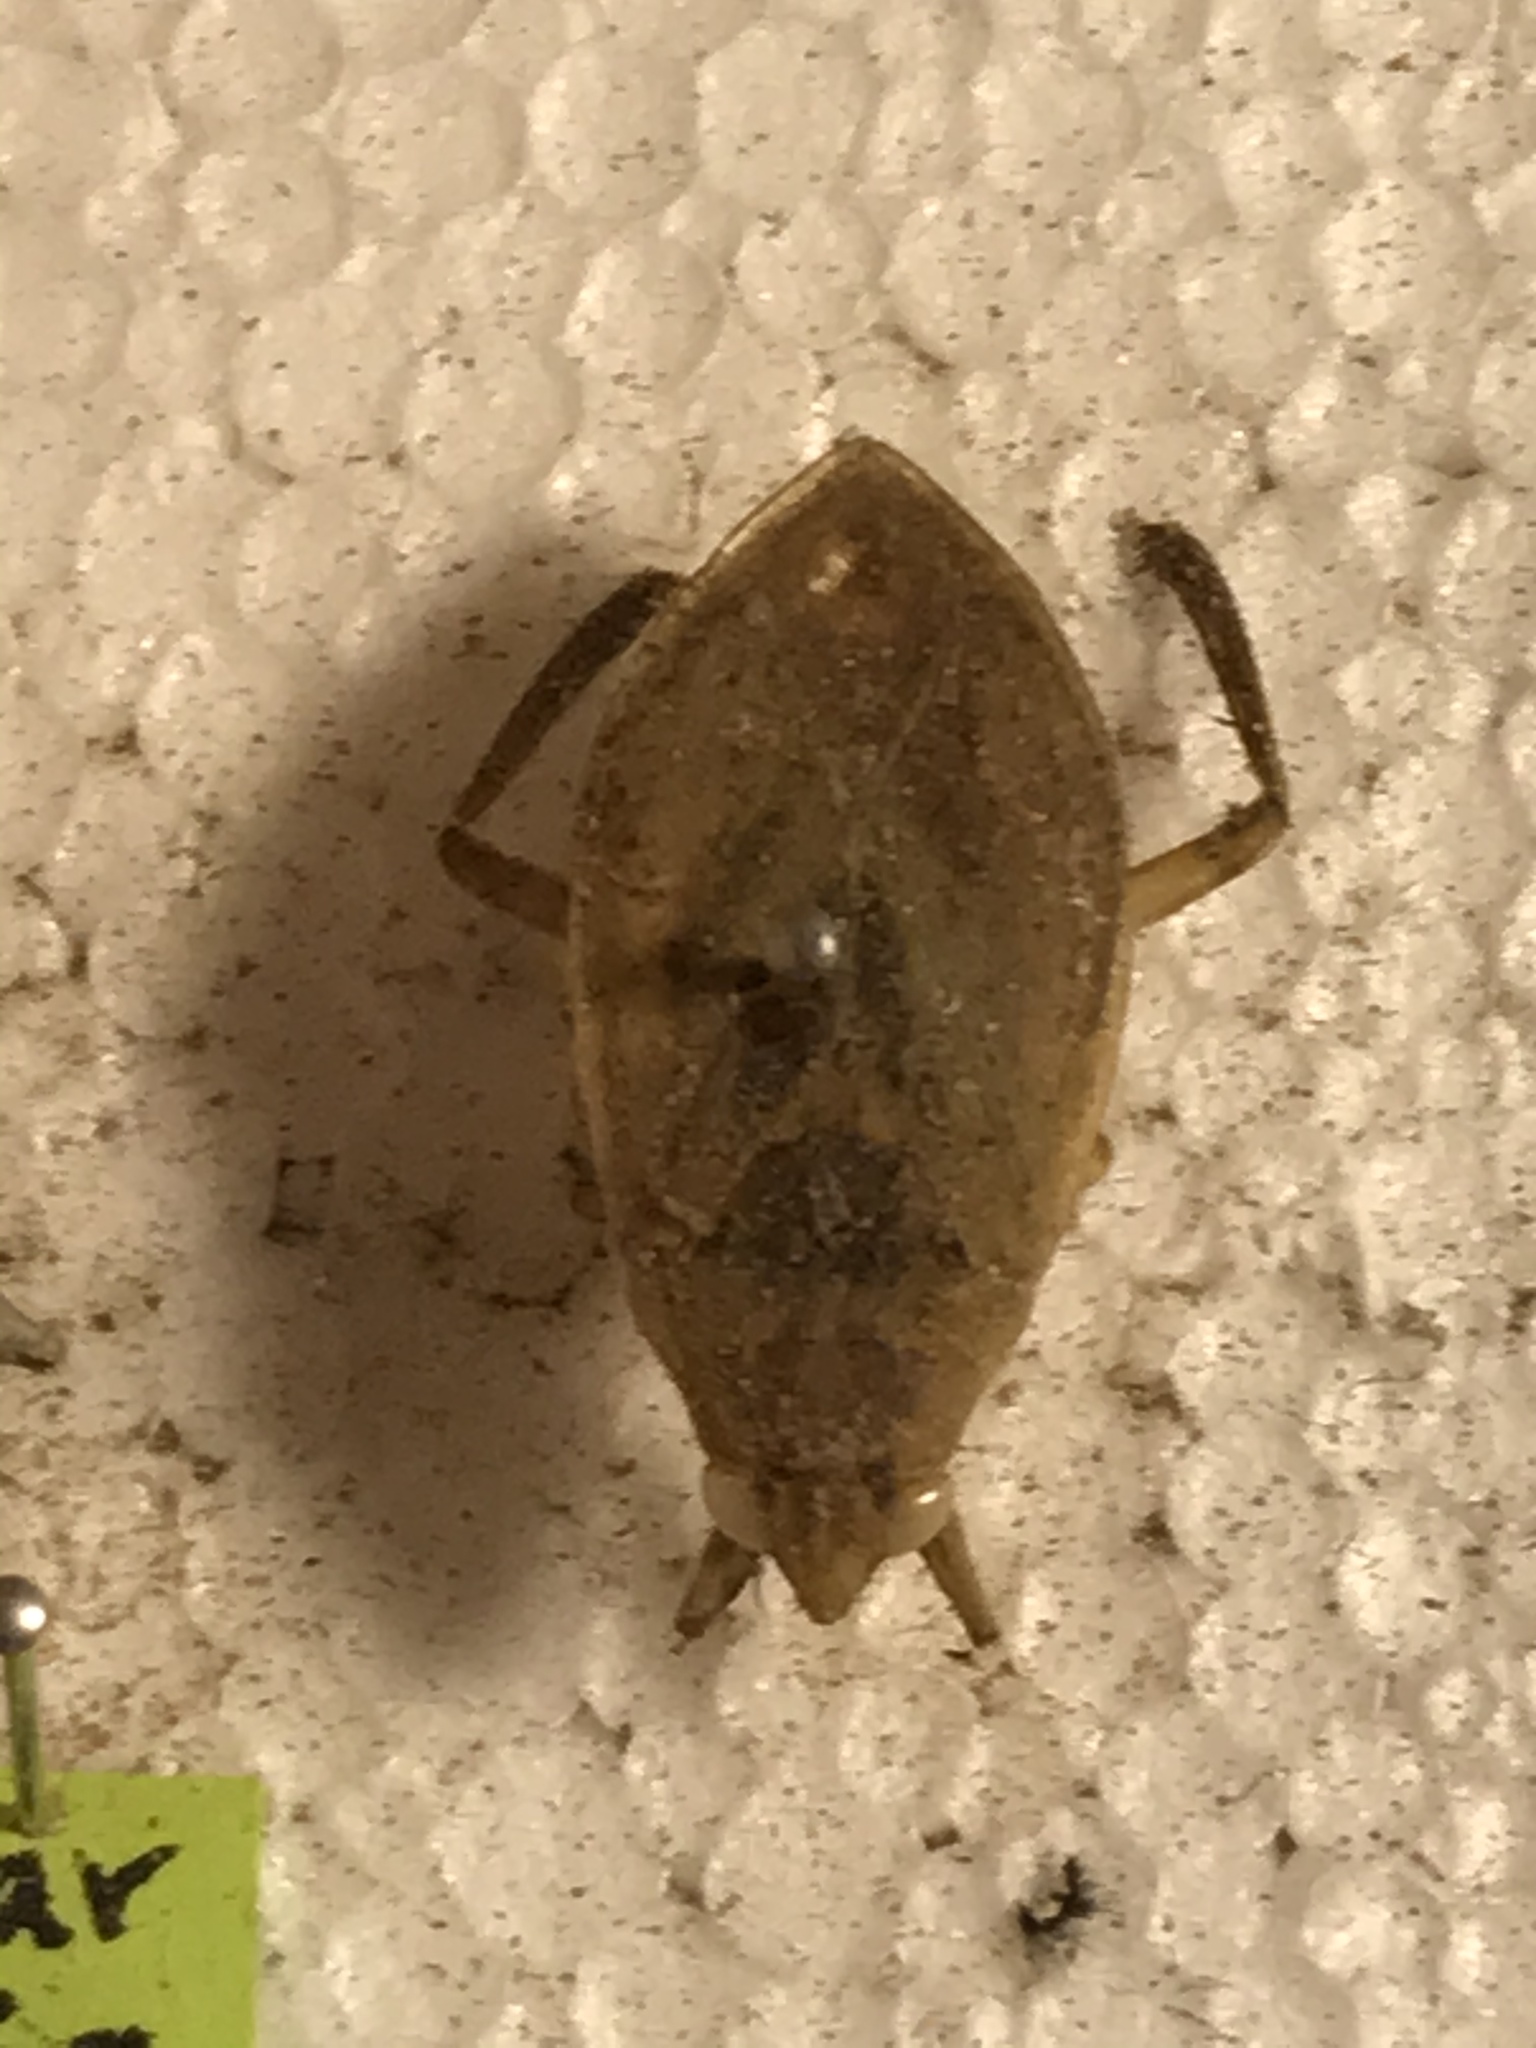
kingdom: Animalia
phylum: Arthropoda
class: Insecta
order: Hemiptera
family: Belostomatidae
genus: Belostoma
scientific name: Belostoma
